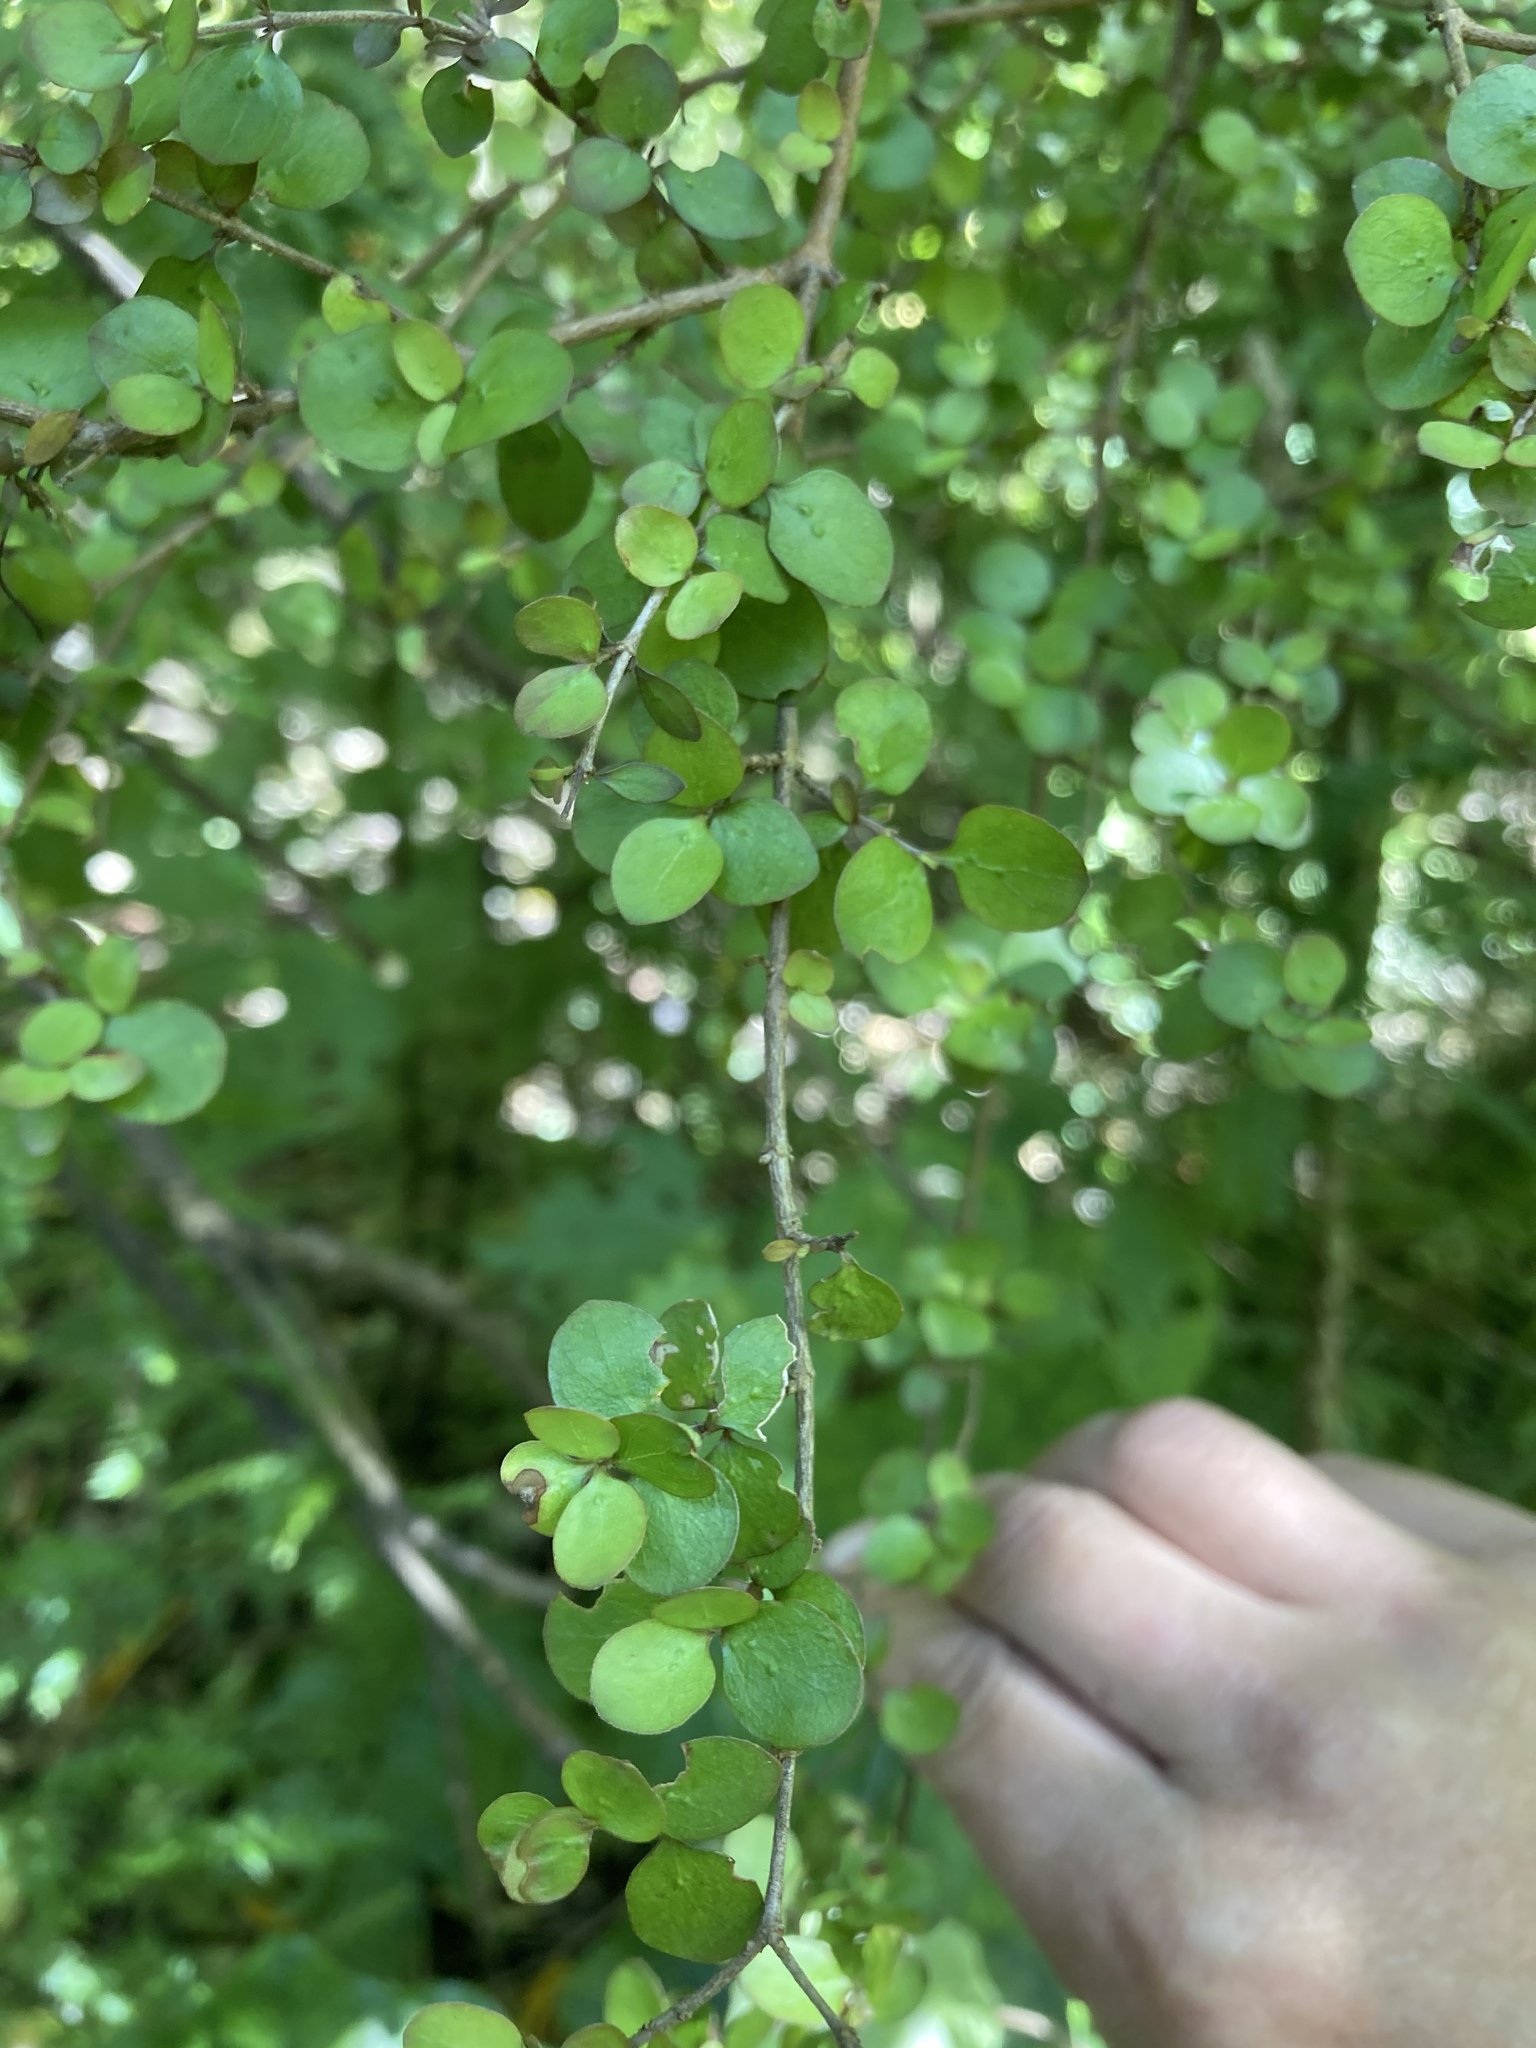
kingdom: Plantae
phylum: Tracheophyta
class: Magnoliopsida
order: Gentianales
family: Rubiaceae
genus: Coprosma
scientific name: Coprosma rhamnoides
